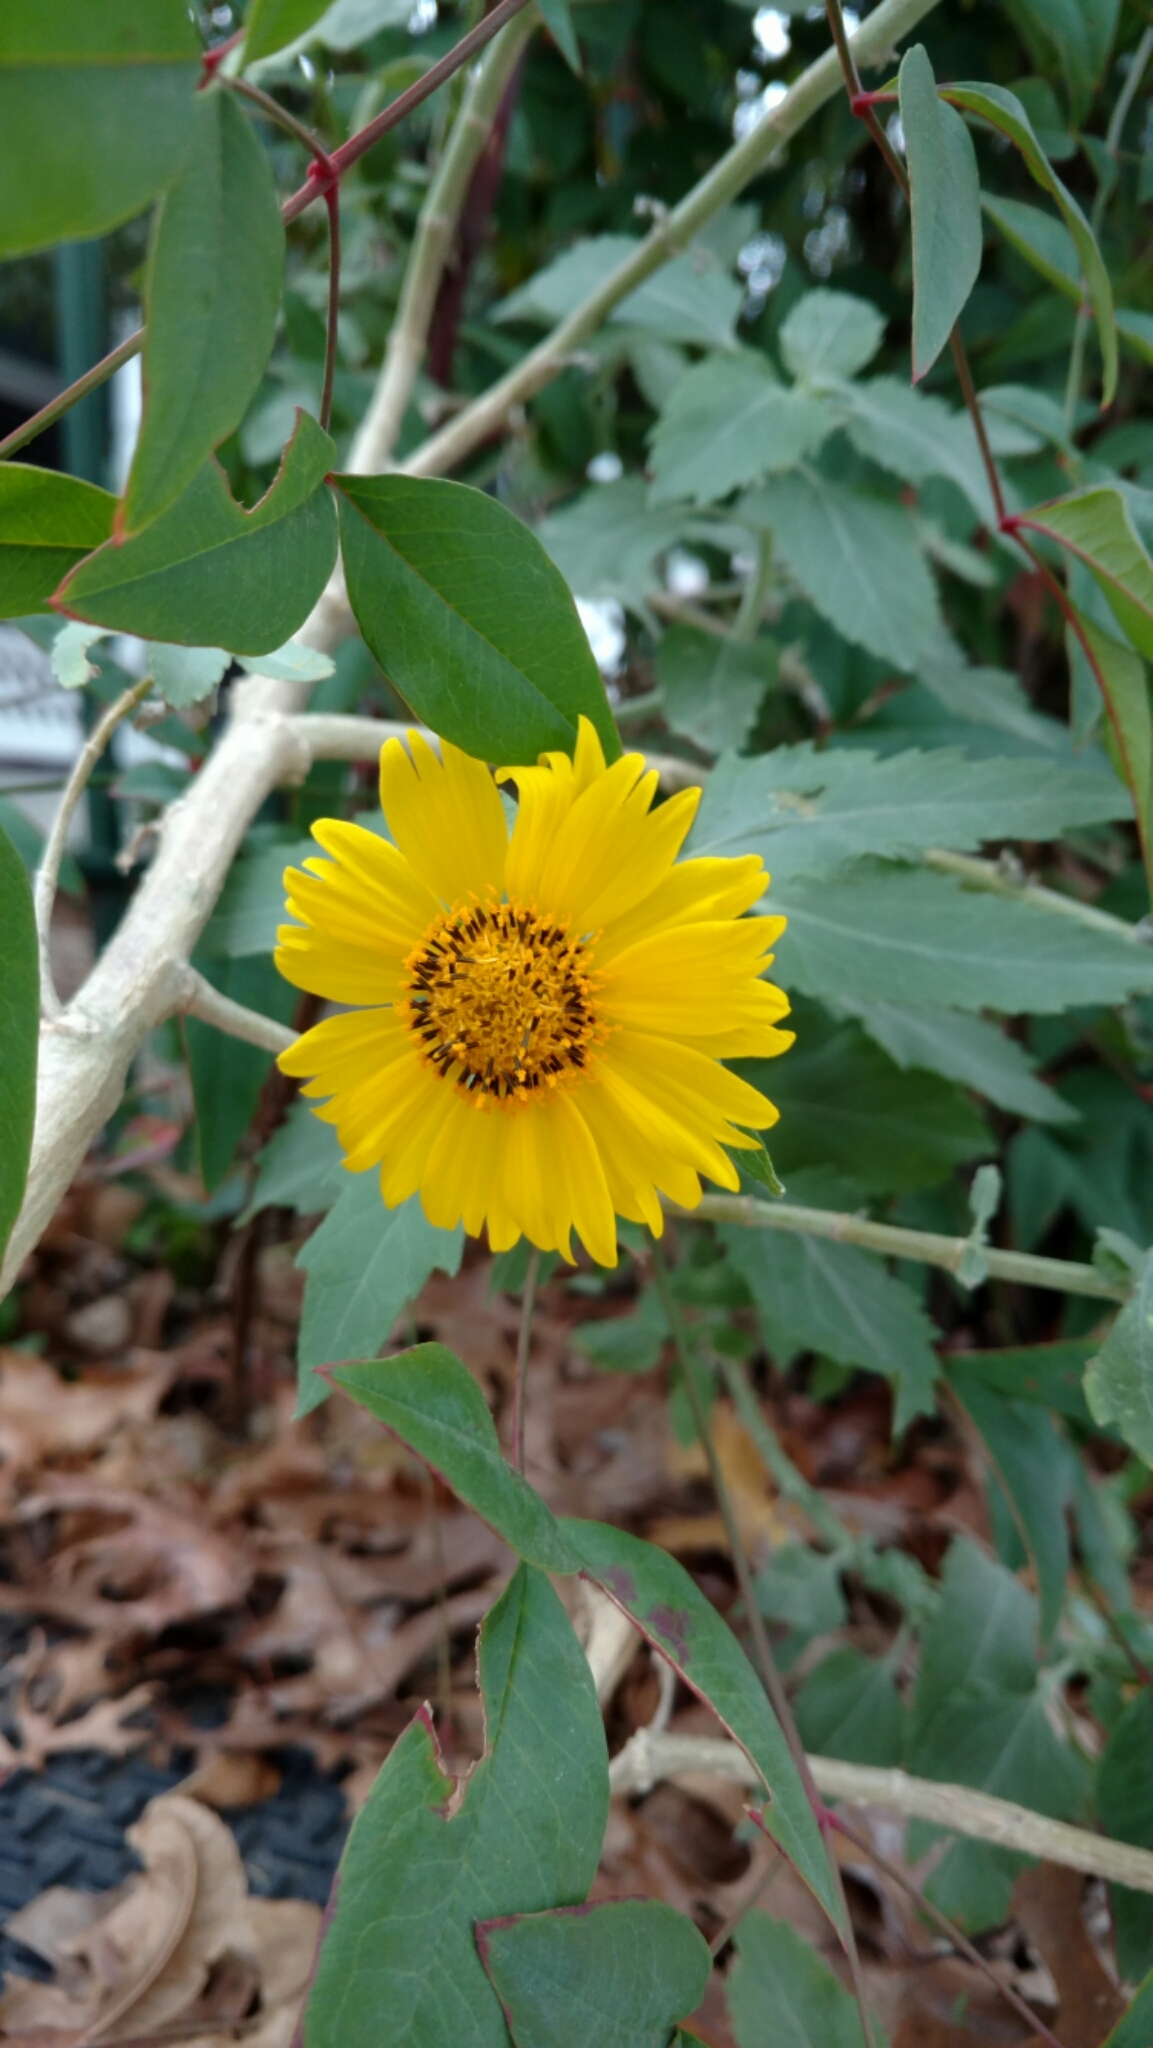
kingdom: Plantae
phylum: Tracheophyta
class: Magnoliopsida
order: Asterales
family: Asteraceae
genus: Verbesina
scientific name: Verbesina encelioides
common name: Golden crownbeard
